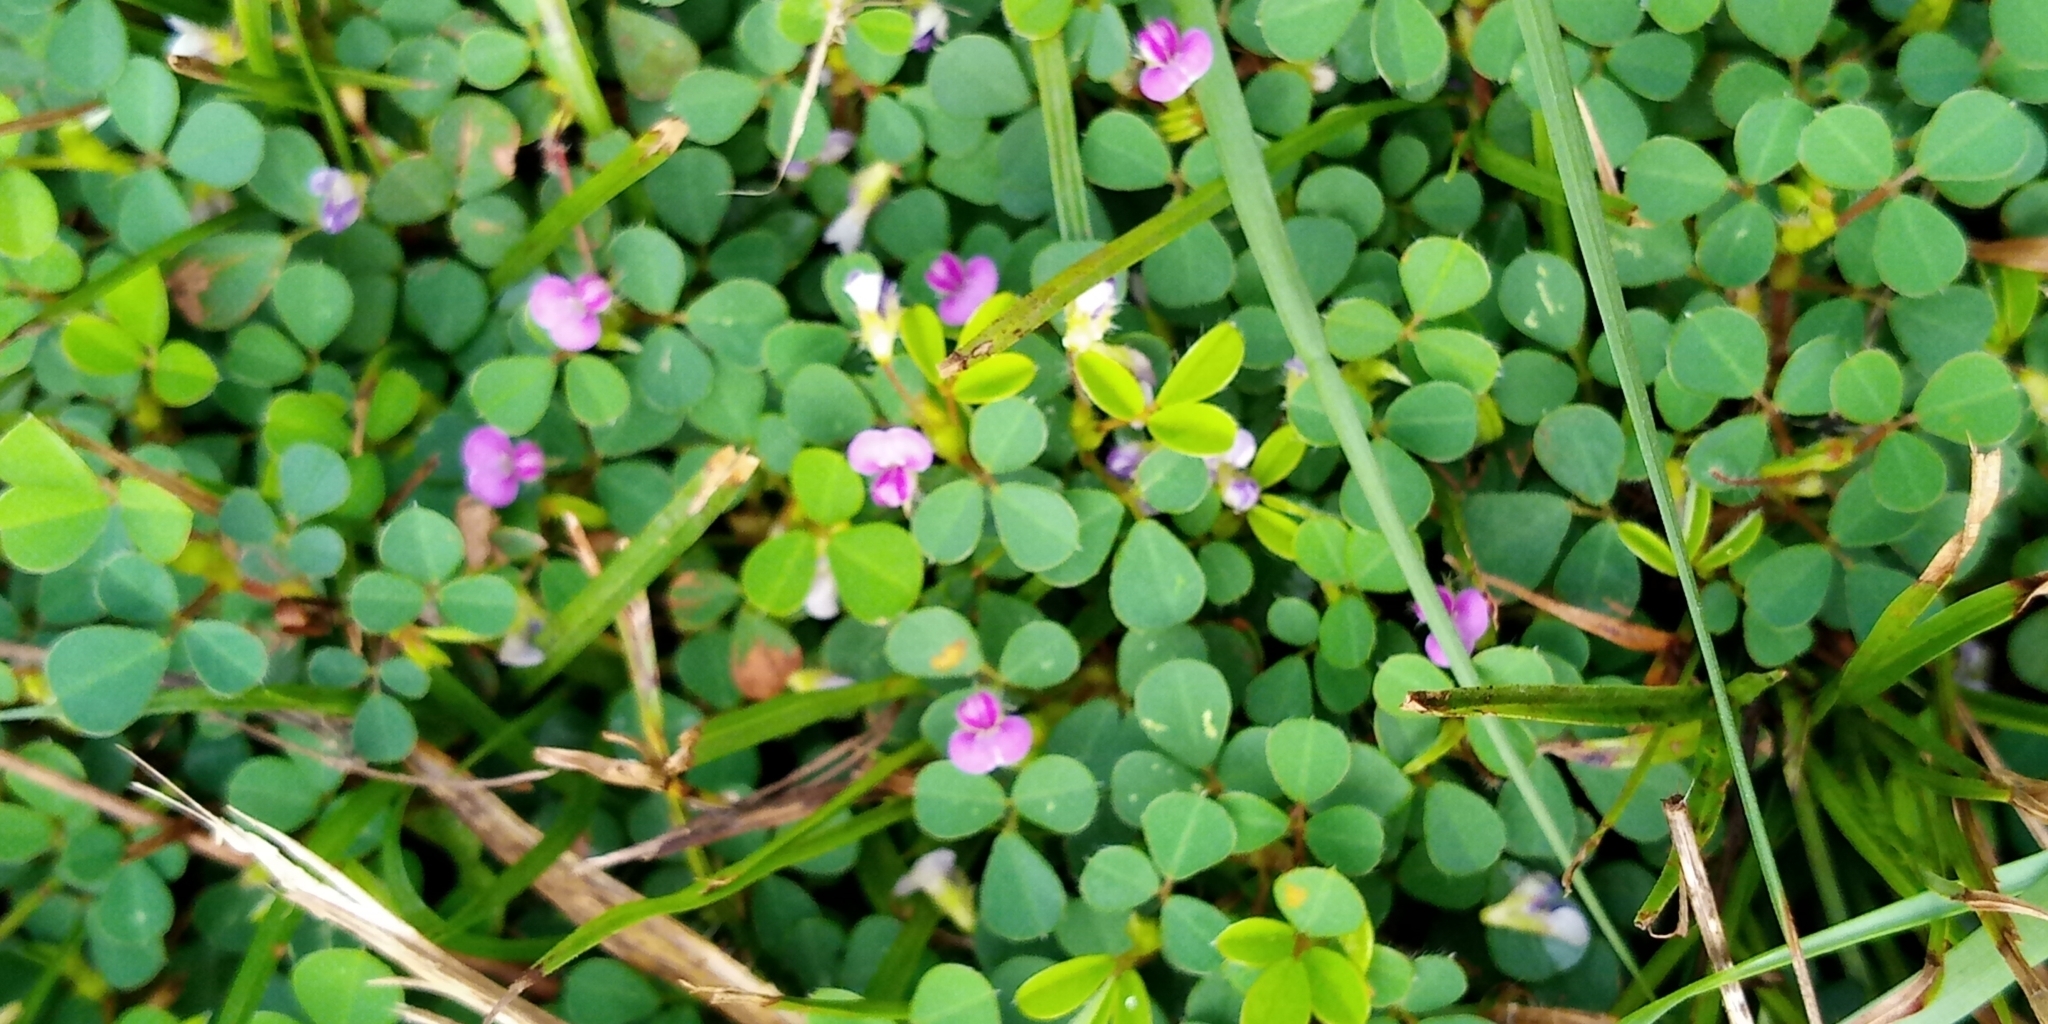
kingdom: Plantae
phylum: Tracheophyta
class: Magnoliopsida
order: Fabales
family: Fabaceae
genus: Grona
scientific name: Grona triflora
